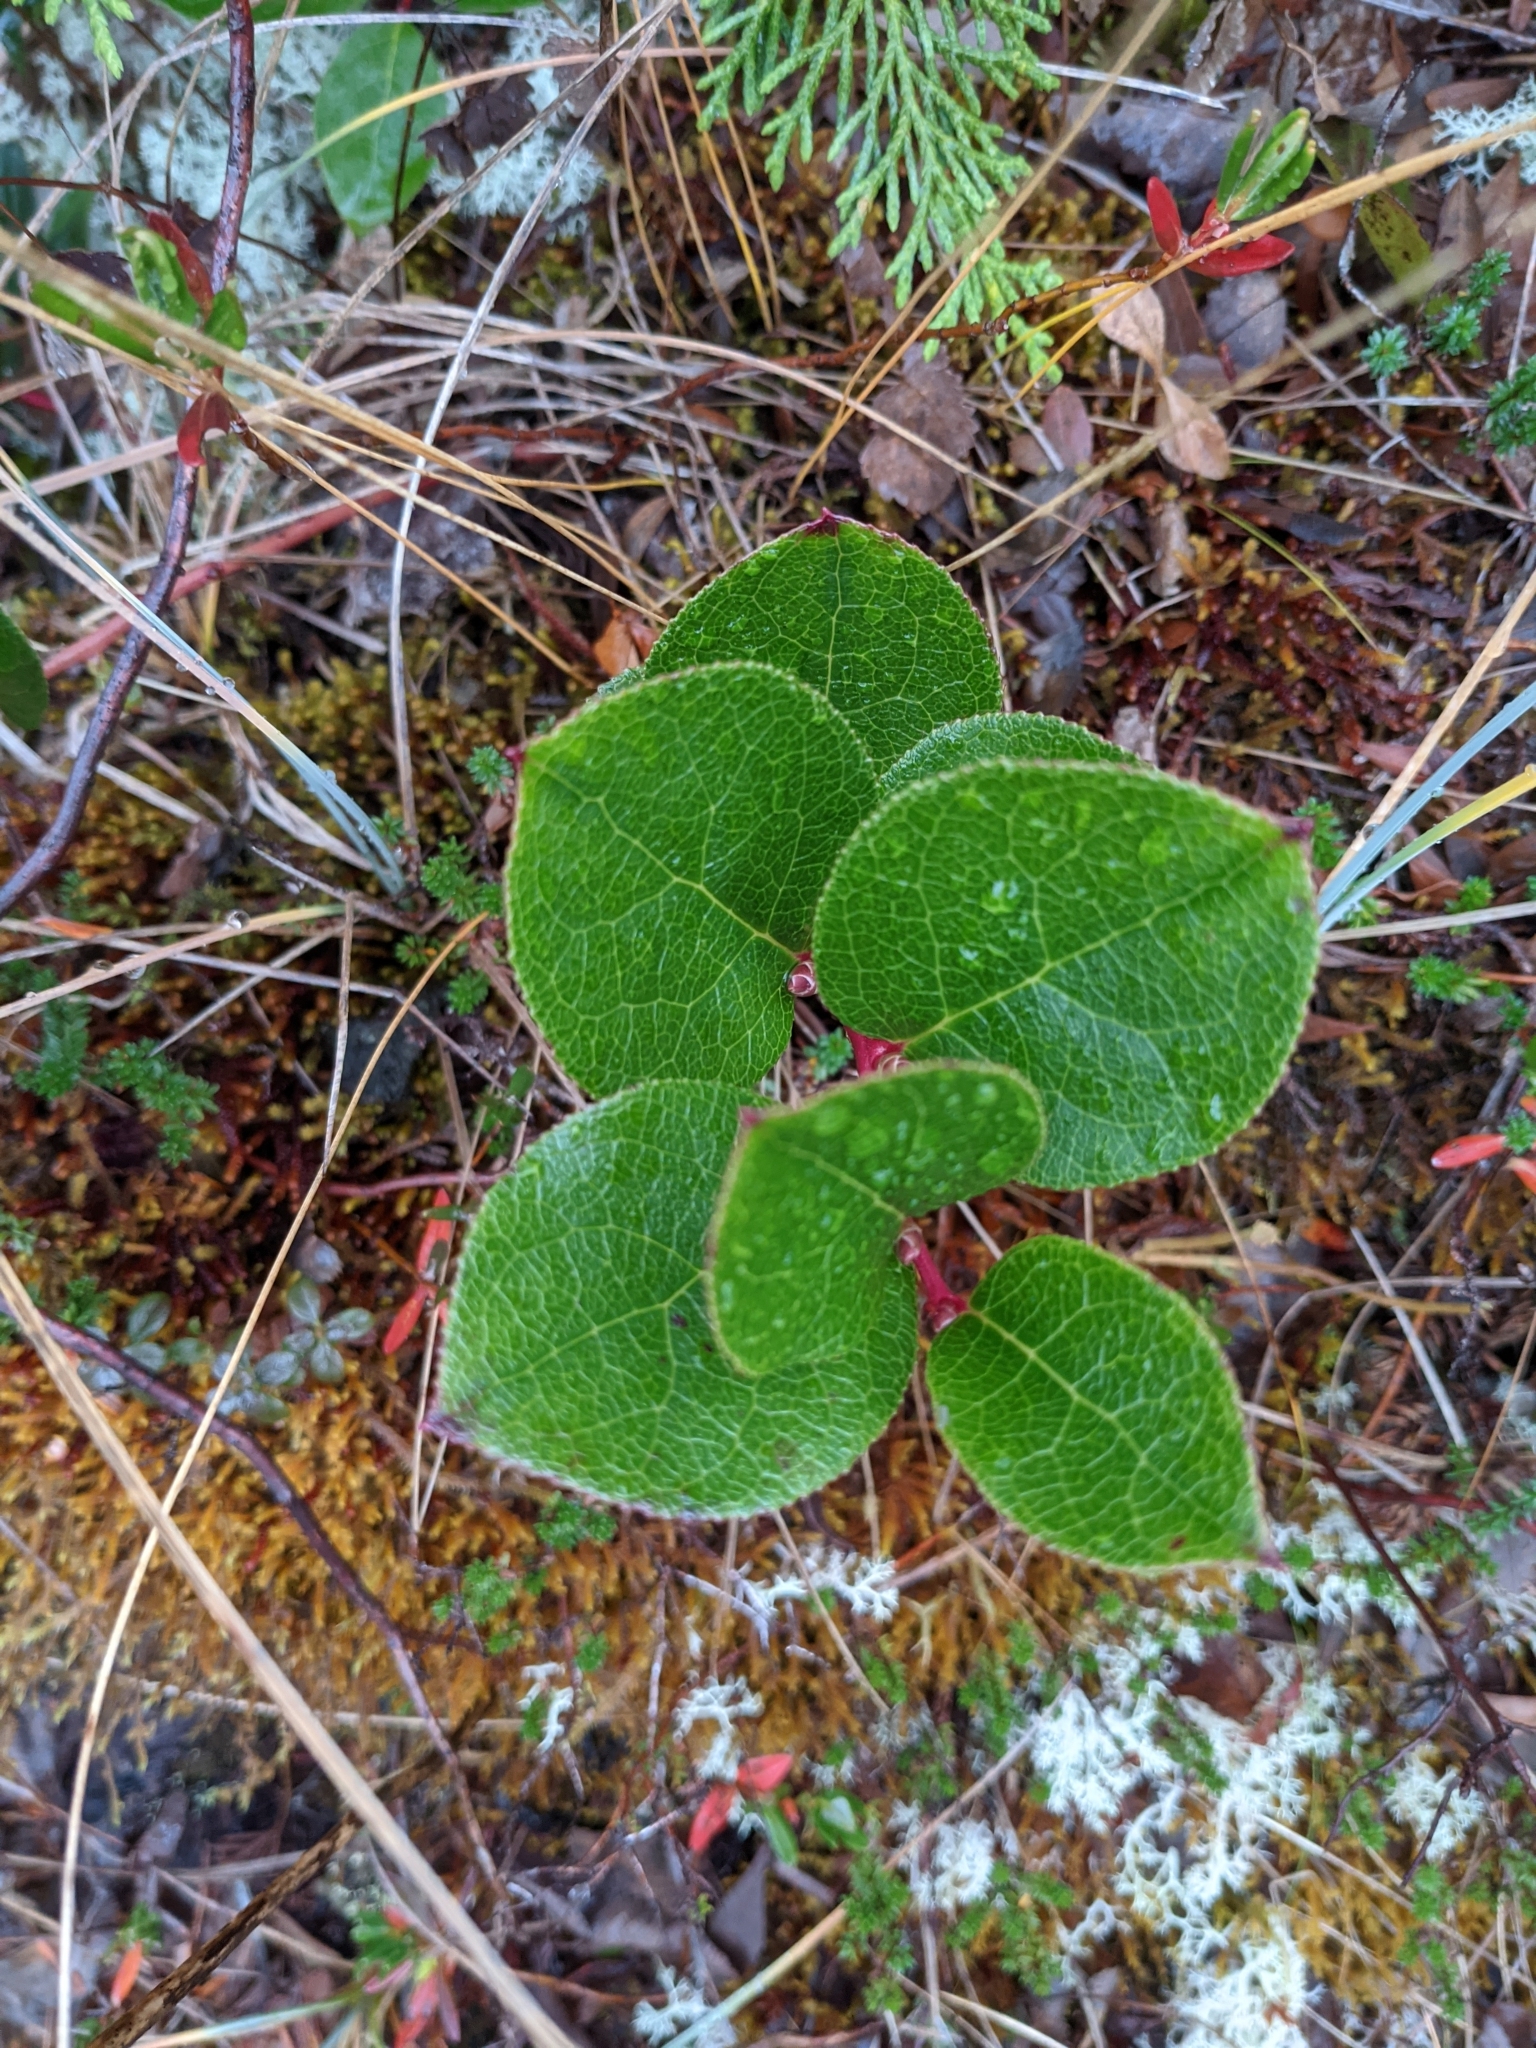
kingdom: Plantae
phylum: Tracheophyta
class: Magnoliopsida
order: Ericales
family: Ericaceae
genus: Gaultheria
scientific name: Gaultheria shallon
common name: Shallon
